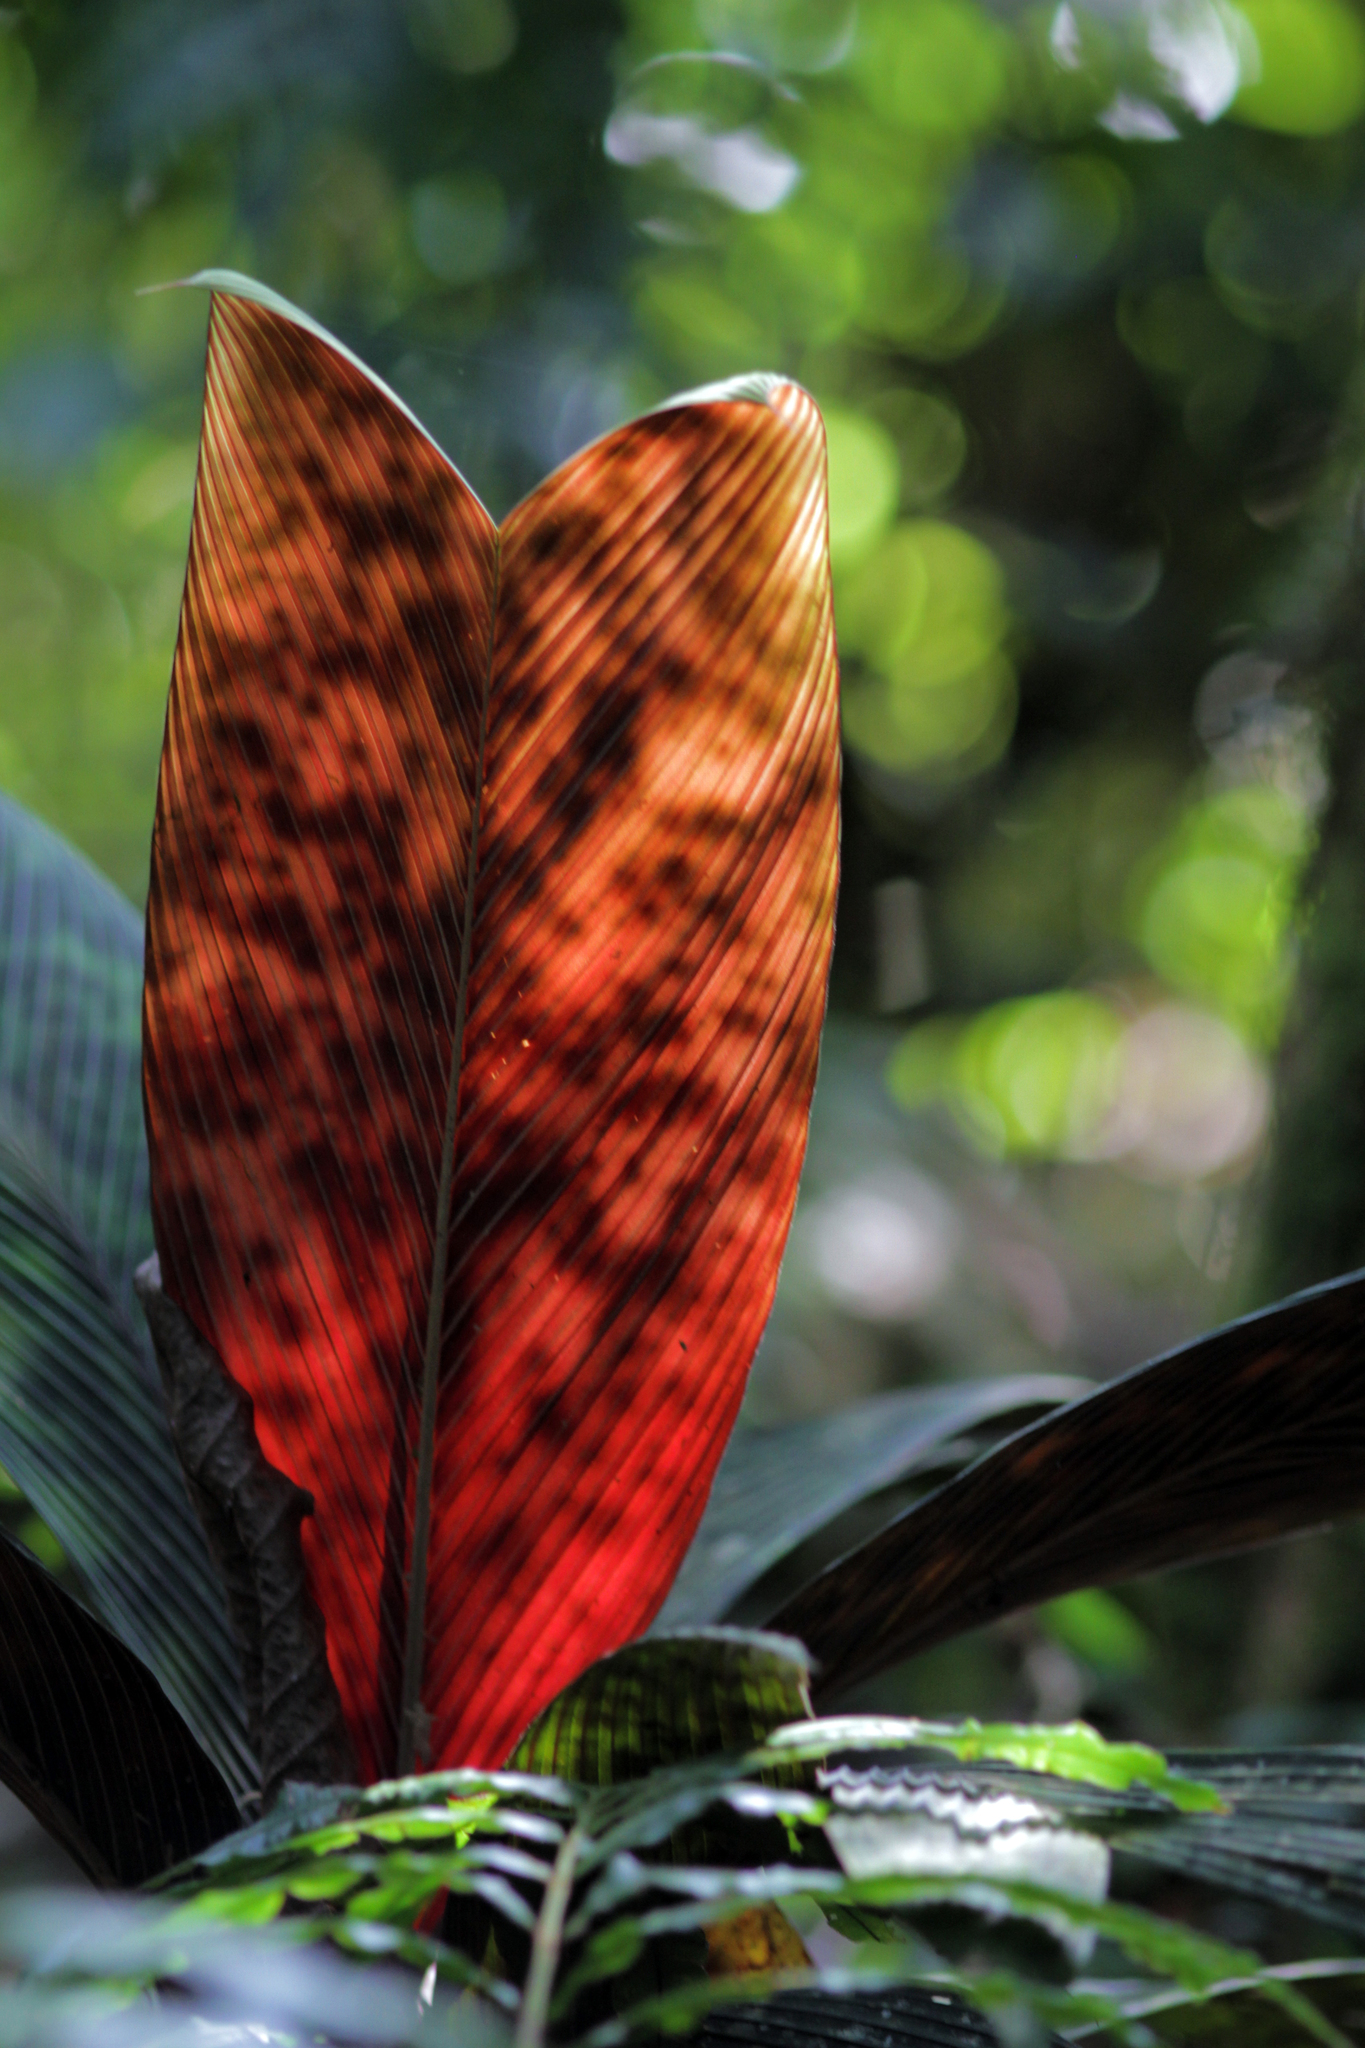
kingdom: Plantae
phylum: Tracheophyta
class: Liliopsida
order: Arecales
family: Arecaceae
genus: Geonoma
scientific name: Geonoma epetiolata
